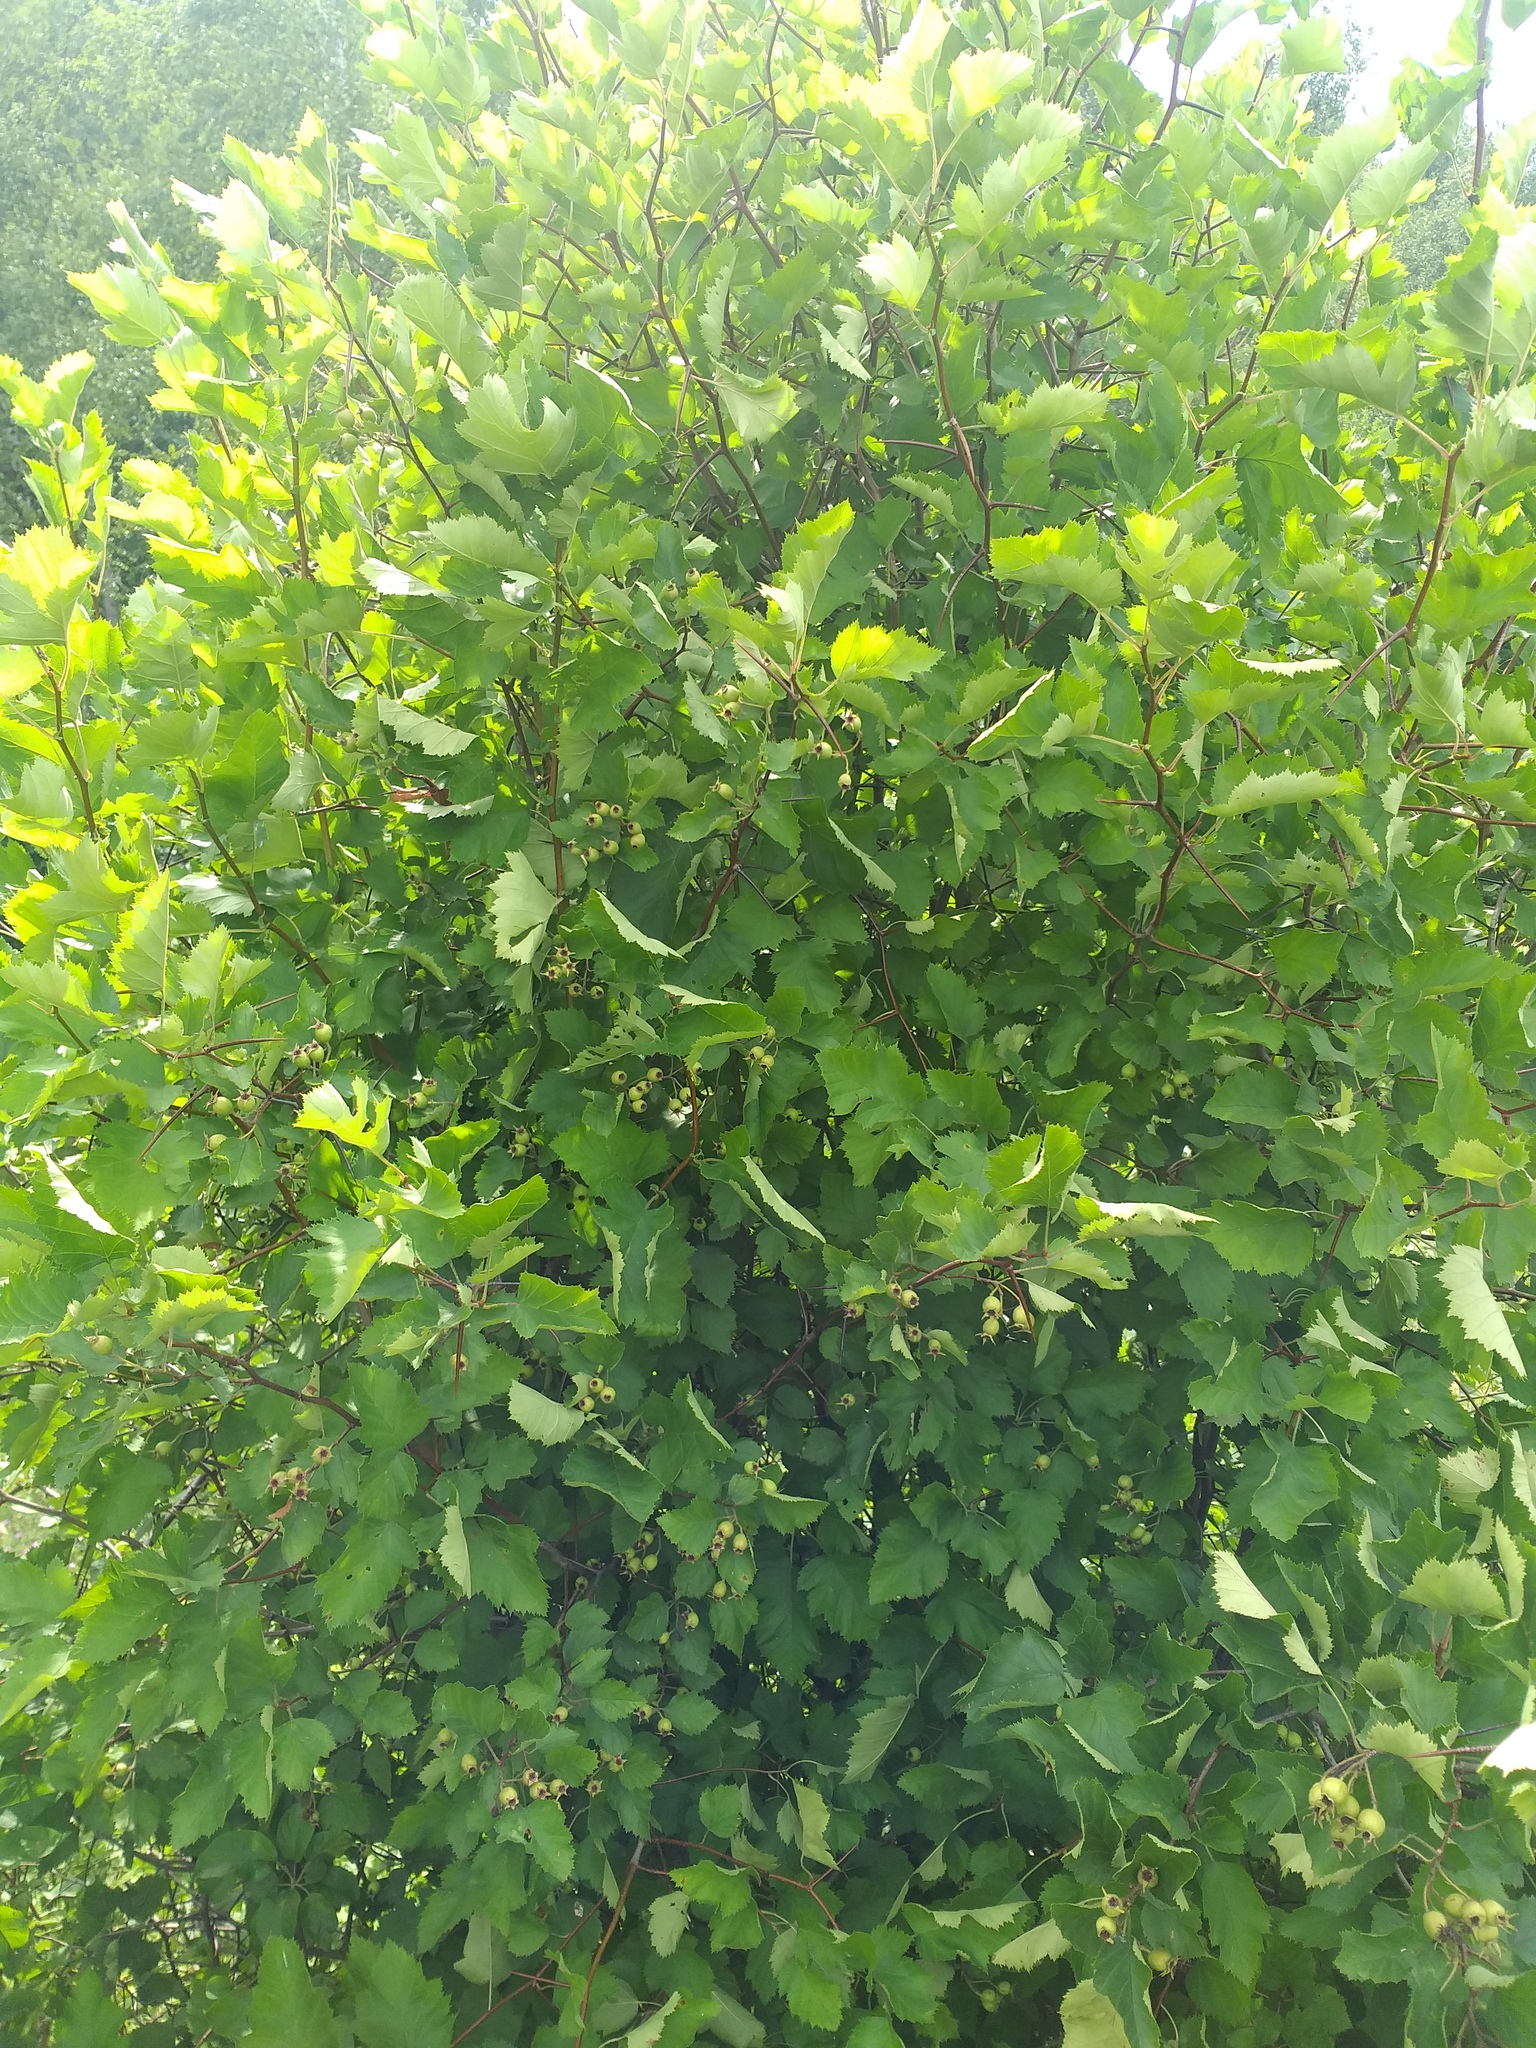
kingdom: Plantae
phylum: Tracheophyta
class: Magnoliopsida
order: Rosales
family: Rosaceae
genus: Crataegus
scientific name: Crataegus submollis
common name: Hairy cockspurthorn
